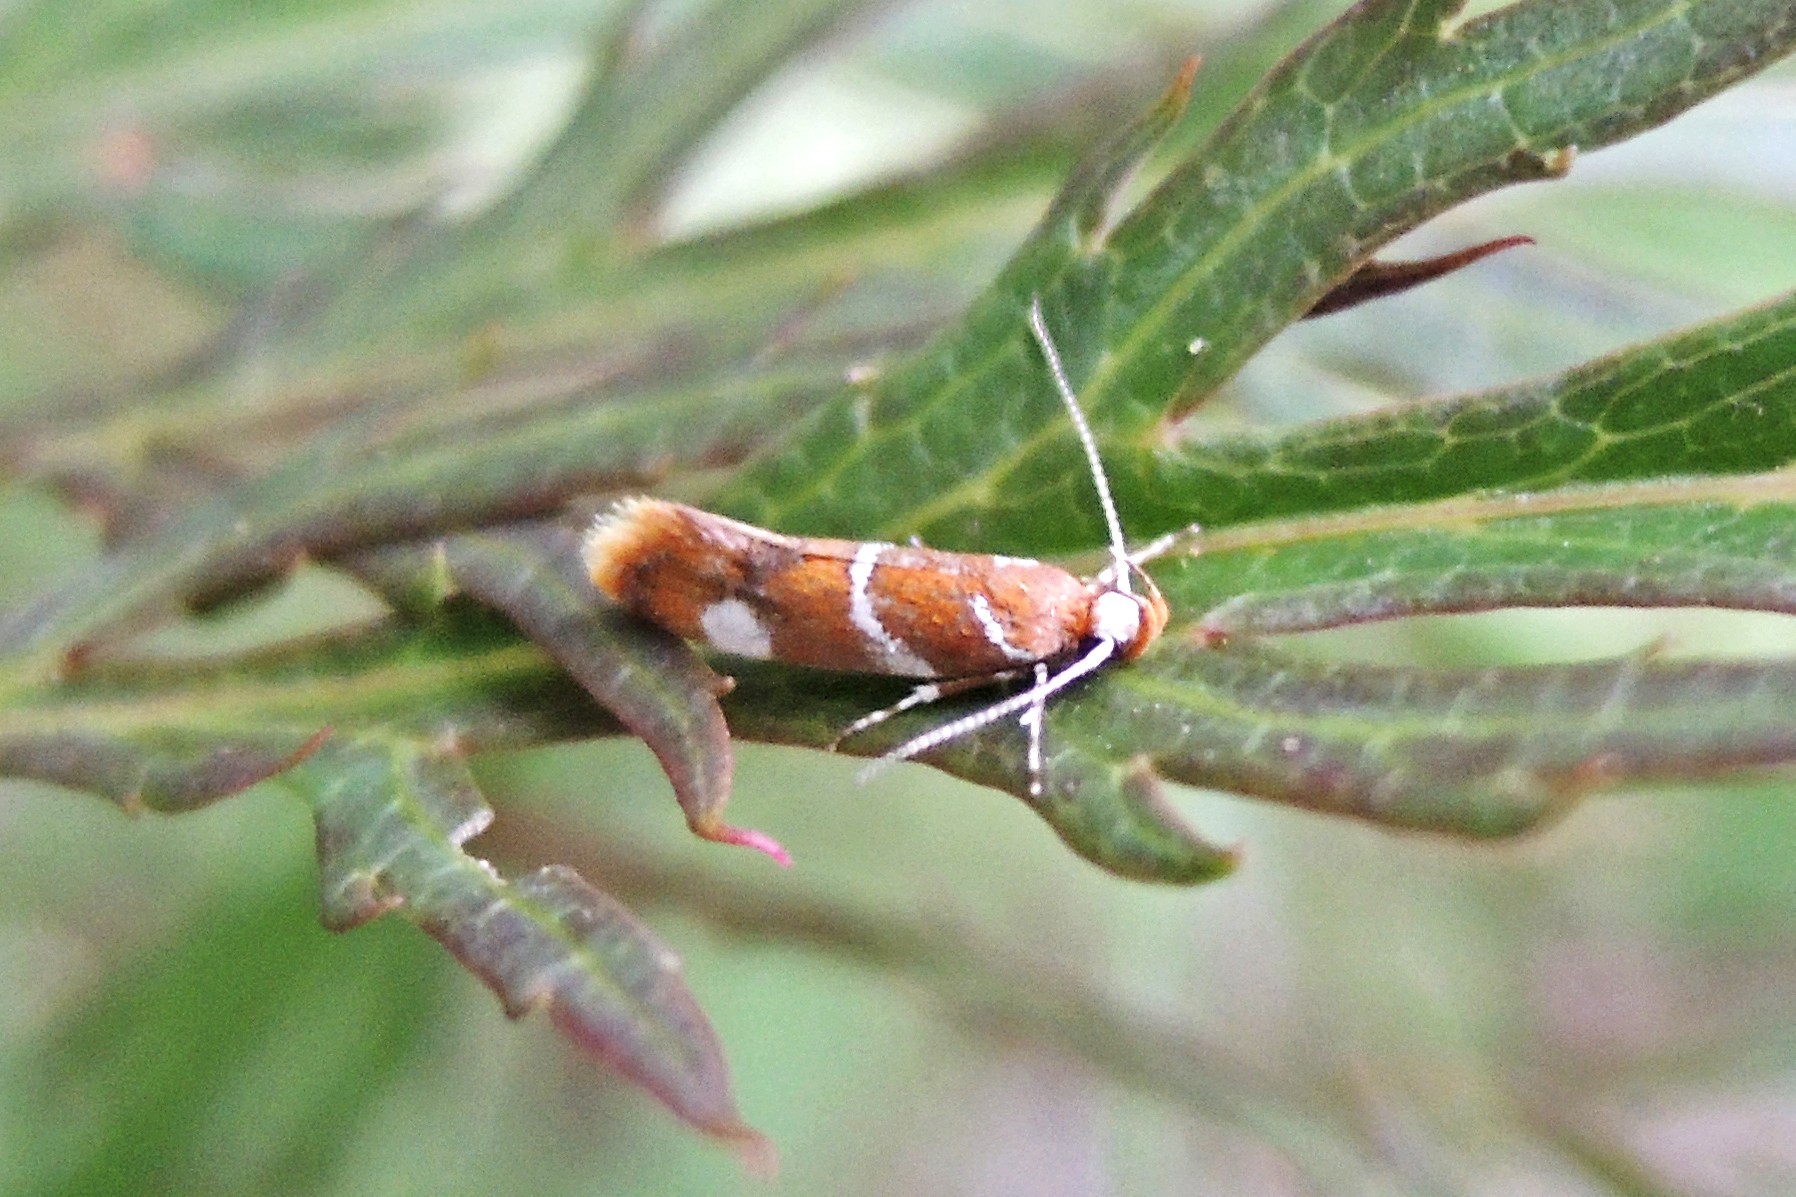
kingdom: Animalia
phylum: Arthropoda
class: Insecta
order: Lepidoptera
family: Oecophoridae
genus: Promalactis
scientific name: Promalactis suzukiella
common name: Moth
